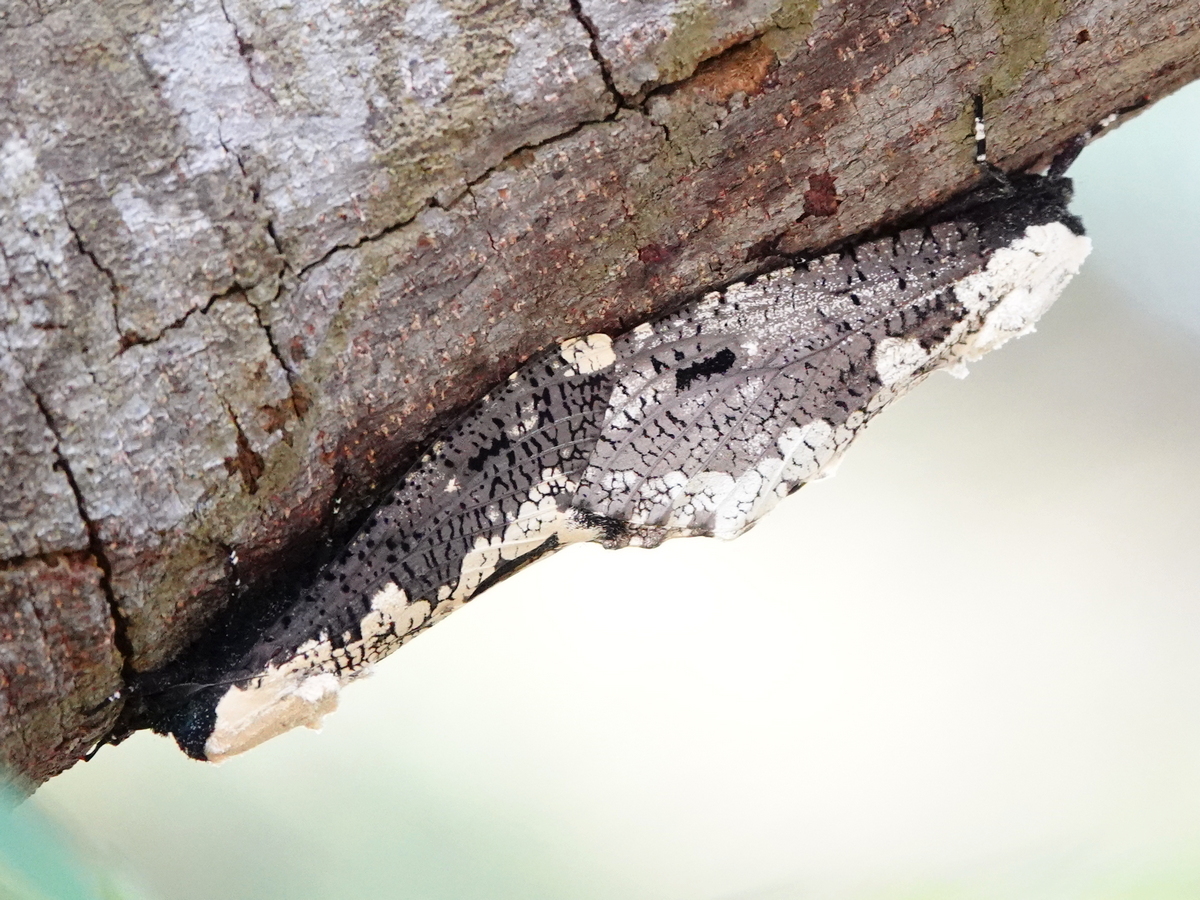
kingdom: Animalia
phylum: Arthropoda
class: Insecta
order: Lepidoptera
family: Cossidae
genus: Xyleutes
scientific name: Xyleutes persona
